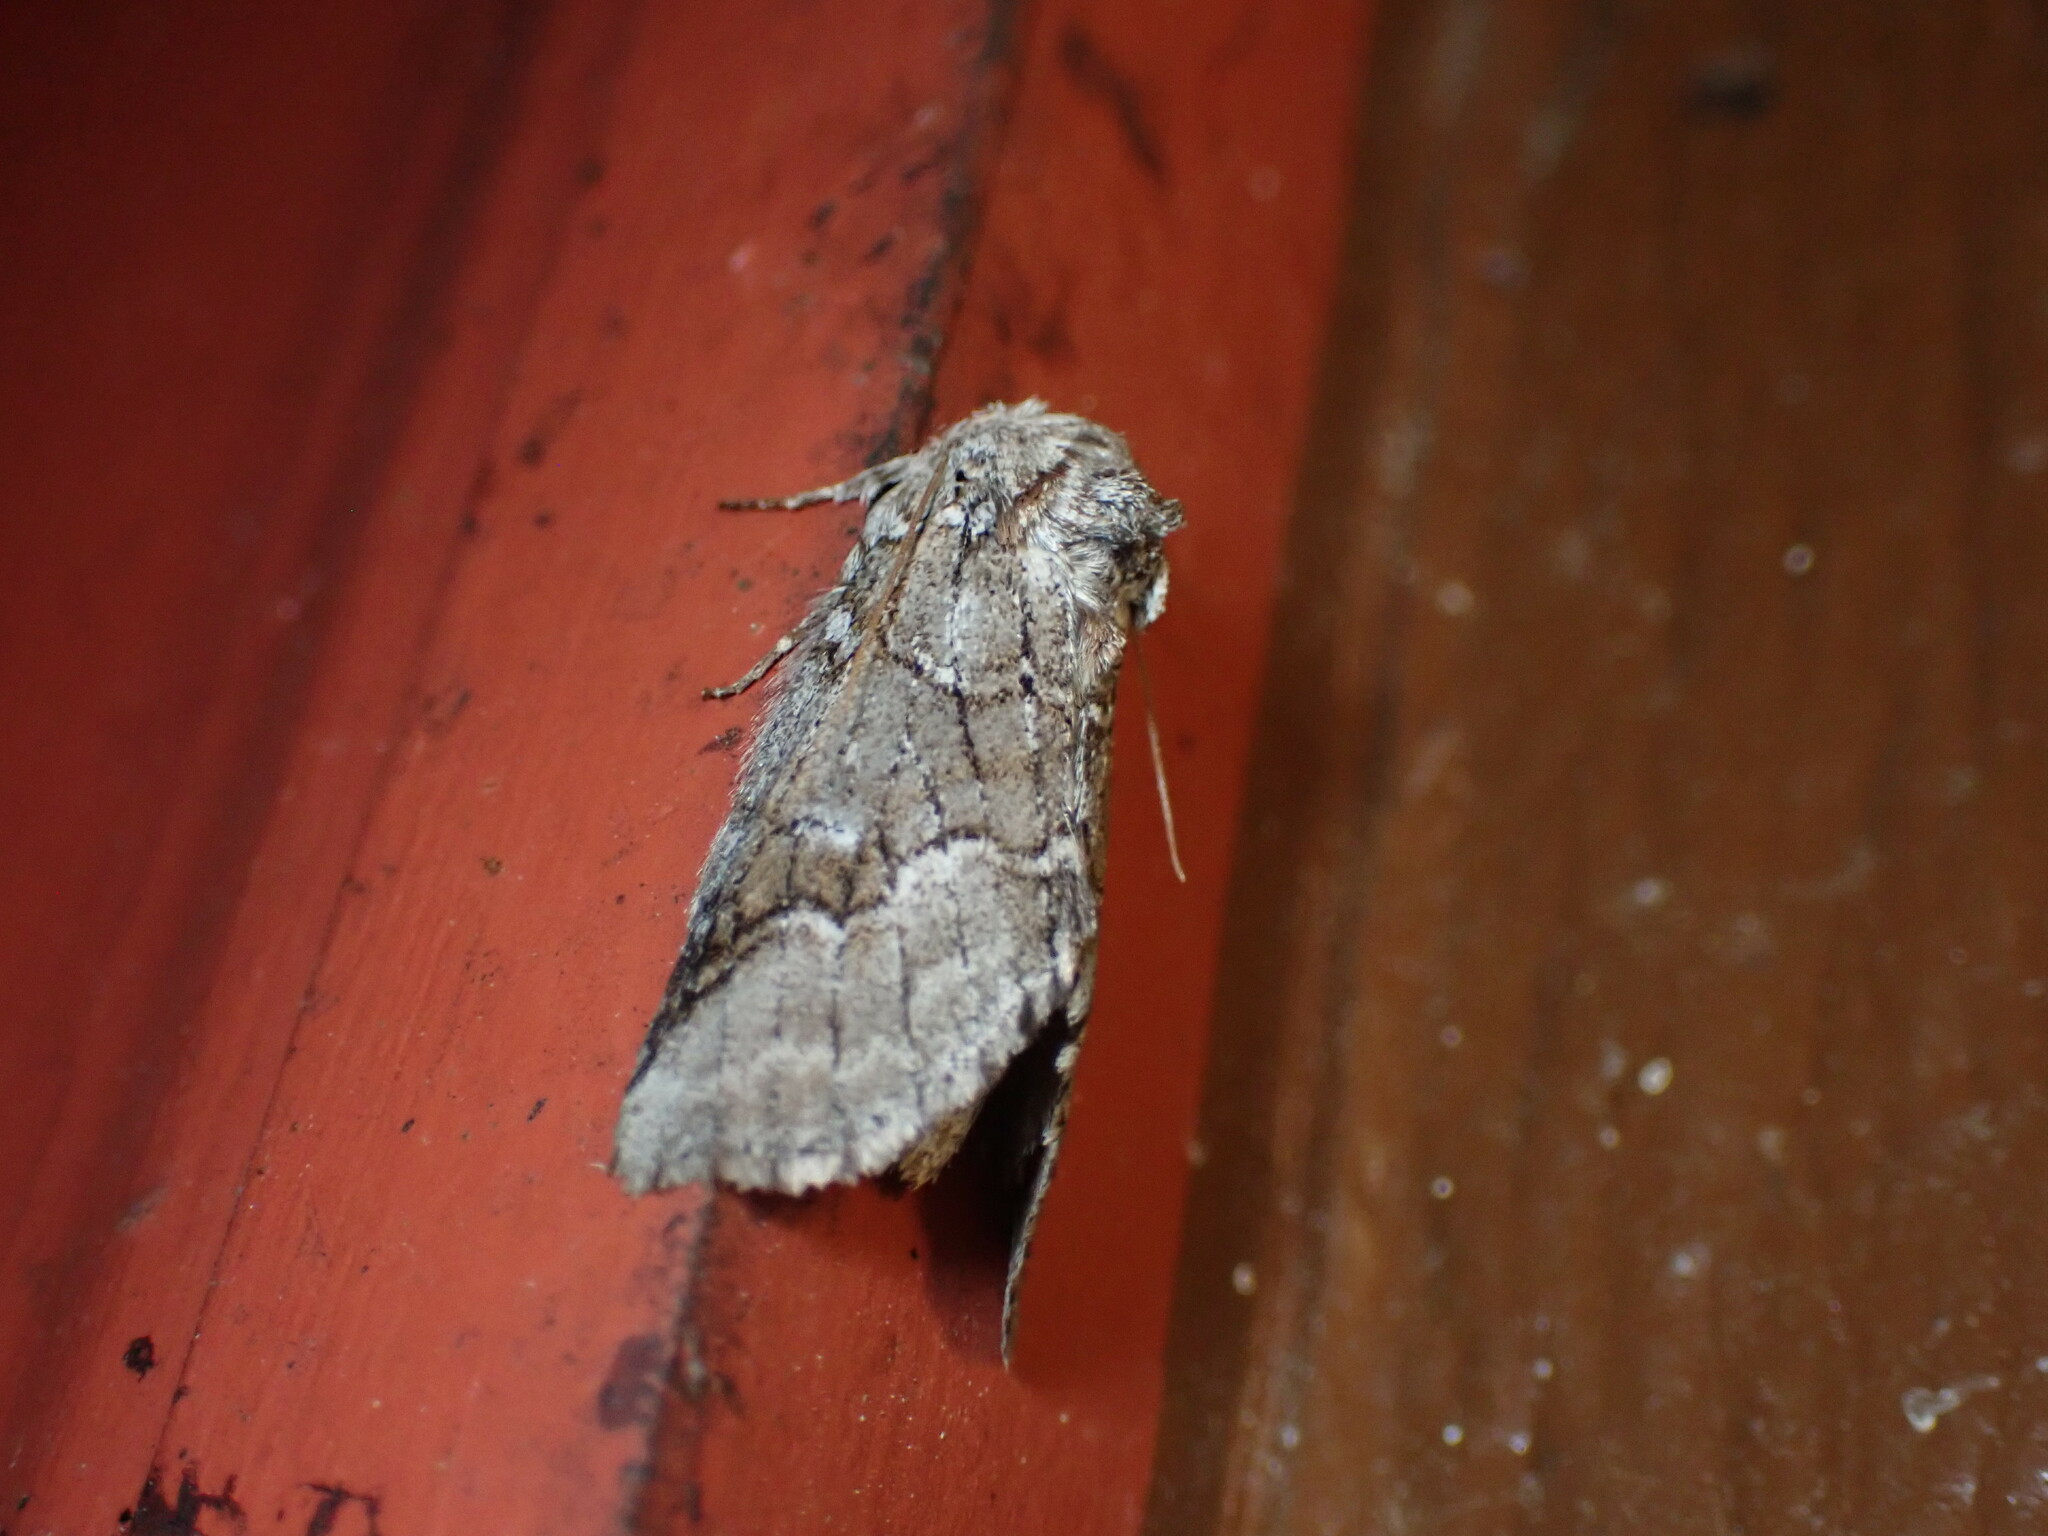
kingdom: Animalia
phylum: Arthropoda
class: Insecta
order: Lepidoptera
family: Notodontidae
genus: Lochmaeus
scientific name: Lochmaeus bilineata
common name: Double-lined prominent
